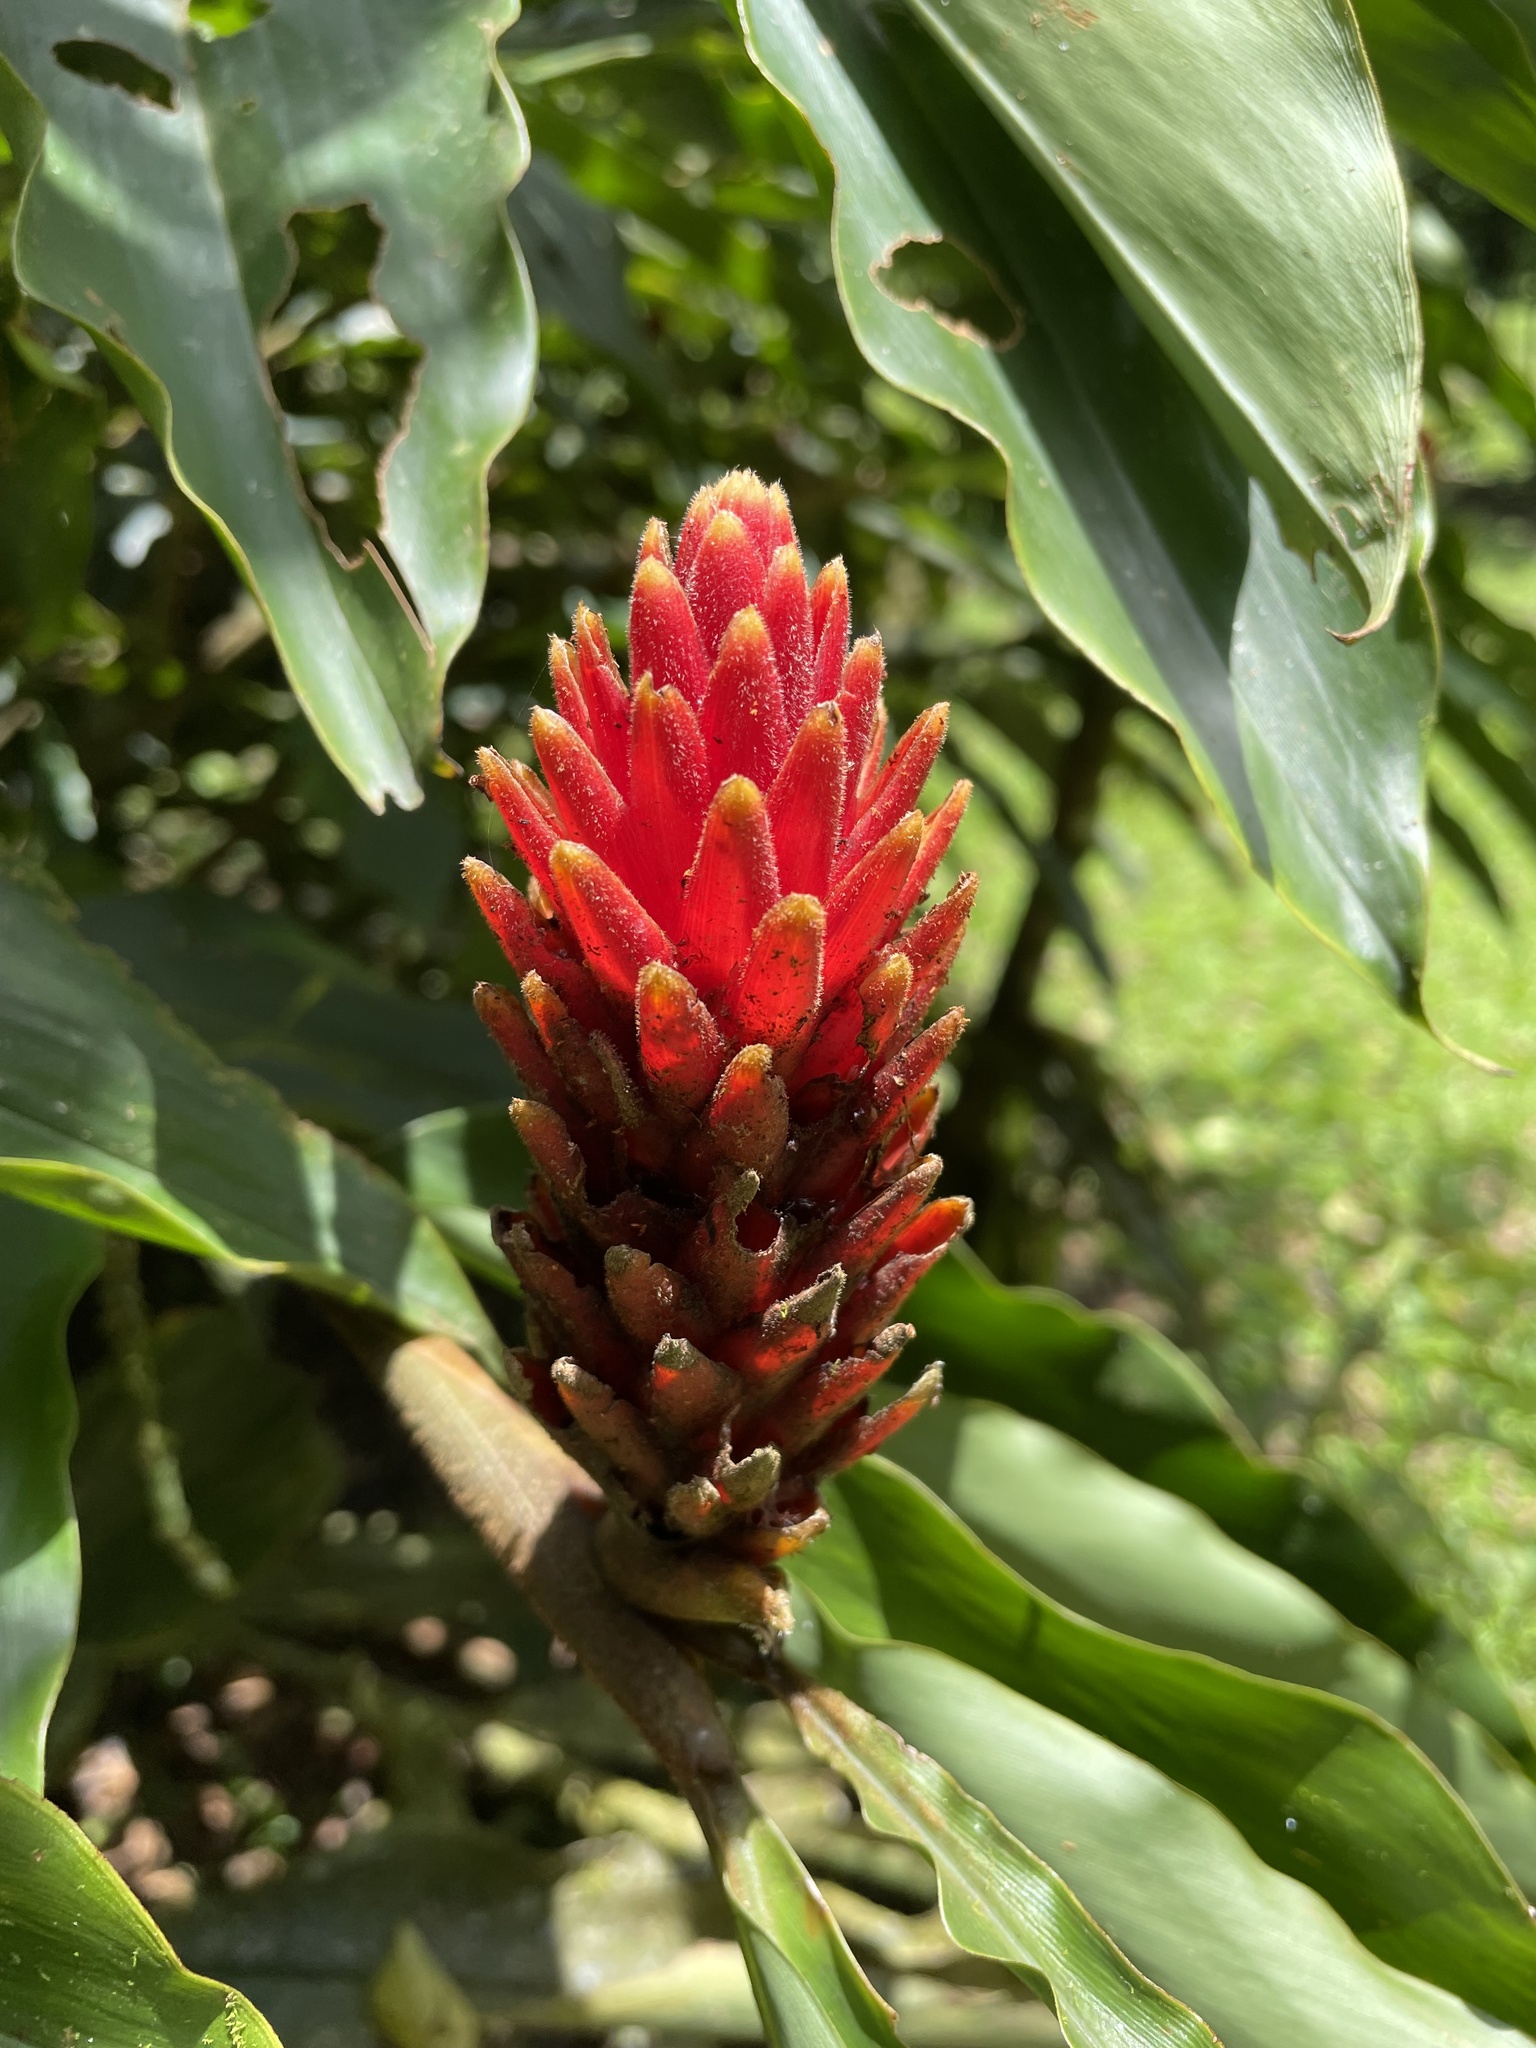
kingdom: Plantae
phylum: Tracheophyta
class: Liliopsida
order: Zingiberales
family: Zingiberaceae
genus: Renealmia
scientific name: Renealmia cernua
